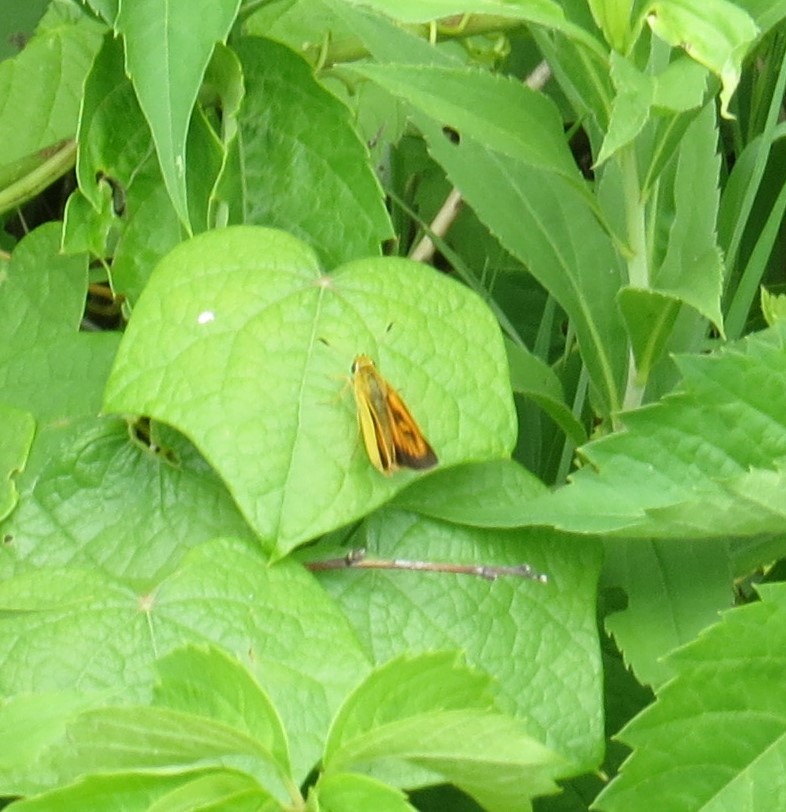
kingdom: Animalia
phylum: Arthropoda
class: Insecta
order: Lepidoptera
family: Hesperiidae
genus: Atrytone
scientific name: Atrytone delaware
